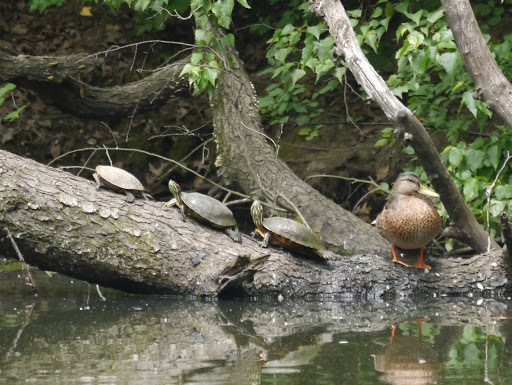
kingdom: Animalia
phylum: Chordata
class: Testudines
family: Emydidae
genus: Trachemys
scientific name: Trachemys scripta
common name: Slider
